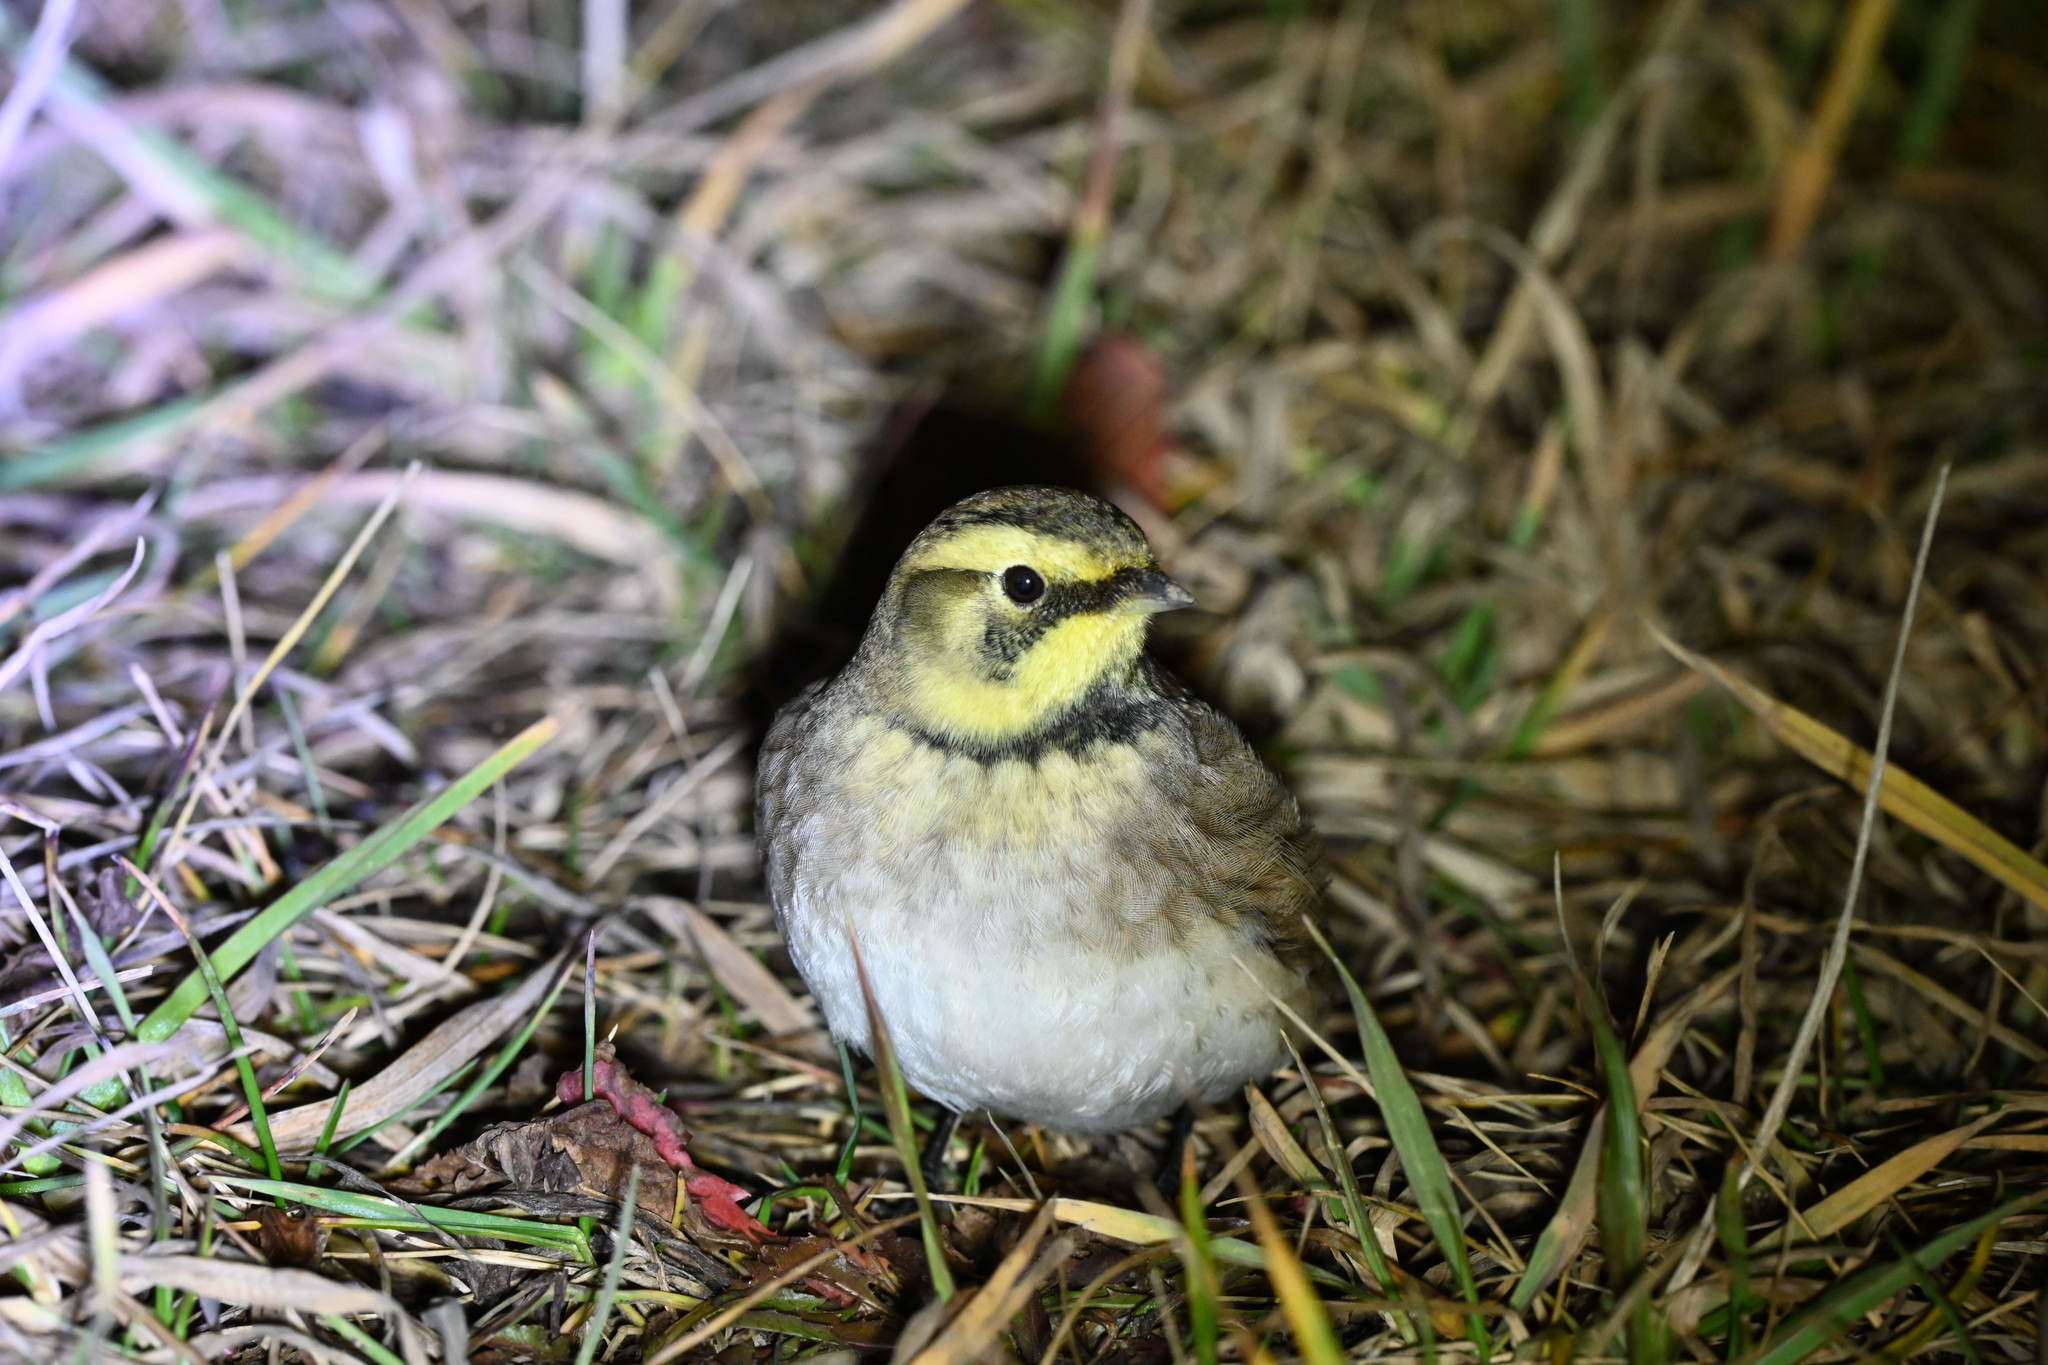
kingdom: Animalia
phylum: Chordata
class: Aves
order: Passeriformes
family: Alaudidae
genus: Eremophila
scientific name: Eremophila alpestris
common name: Horned lark
